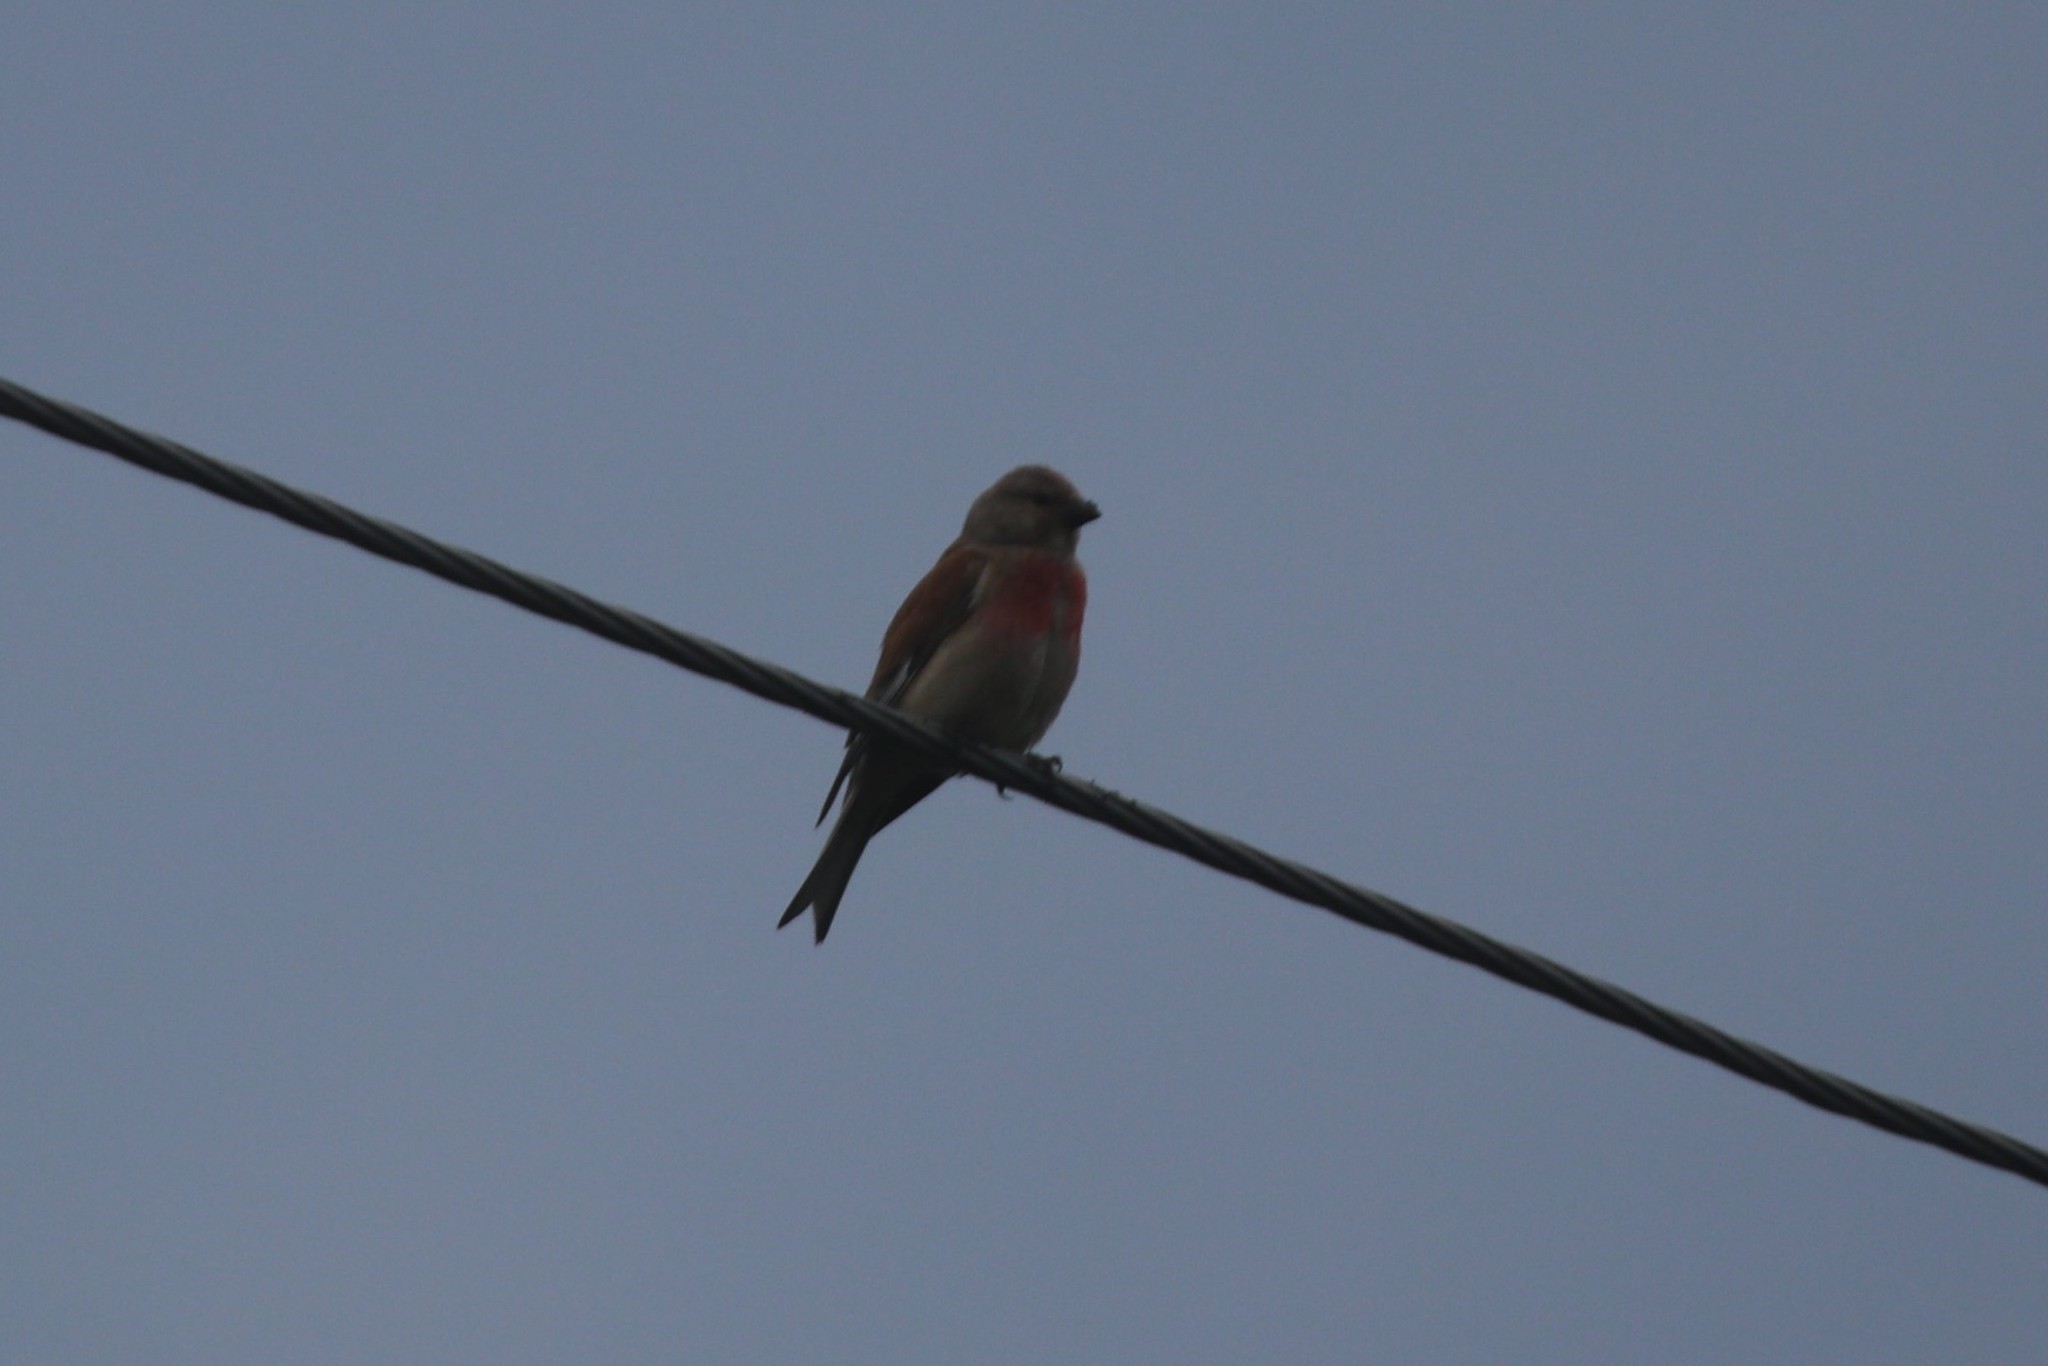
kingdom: Animalia
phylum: Chordata
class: Aves
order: Passeriformes
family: Fringillidae
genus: Linaria
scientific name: Linaria cannabina
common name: Common linnet
